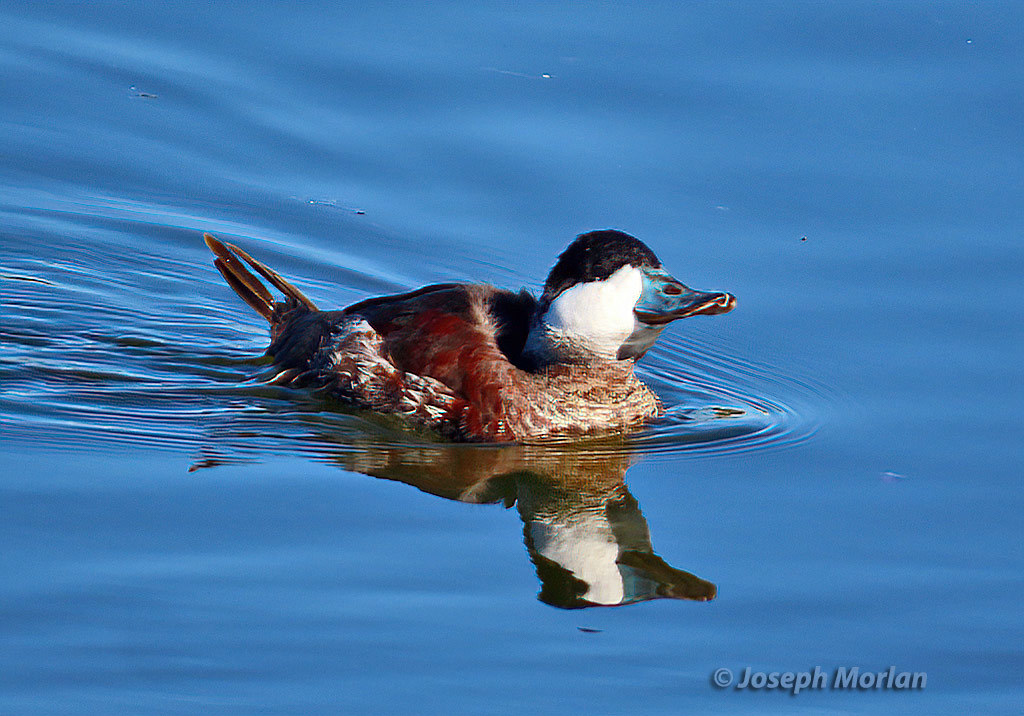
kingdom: Animalia
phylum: Chordata
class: Aves
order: Anseriformes
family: Anatidae
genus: Oxyura
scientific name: Oxyura jamaicensis
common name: Ruddy duck
